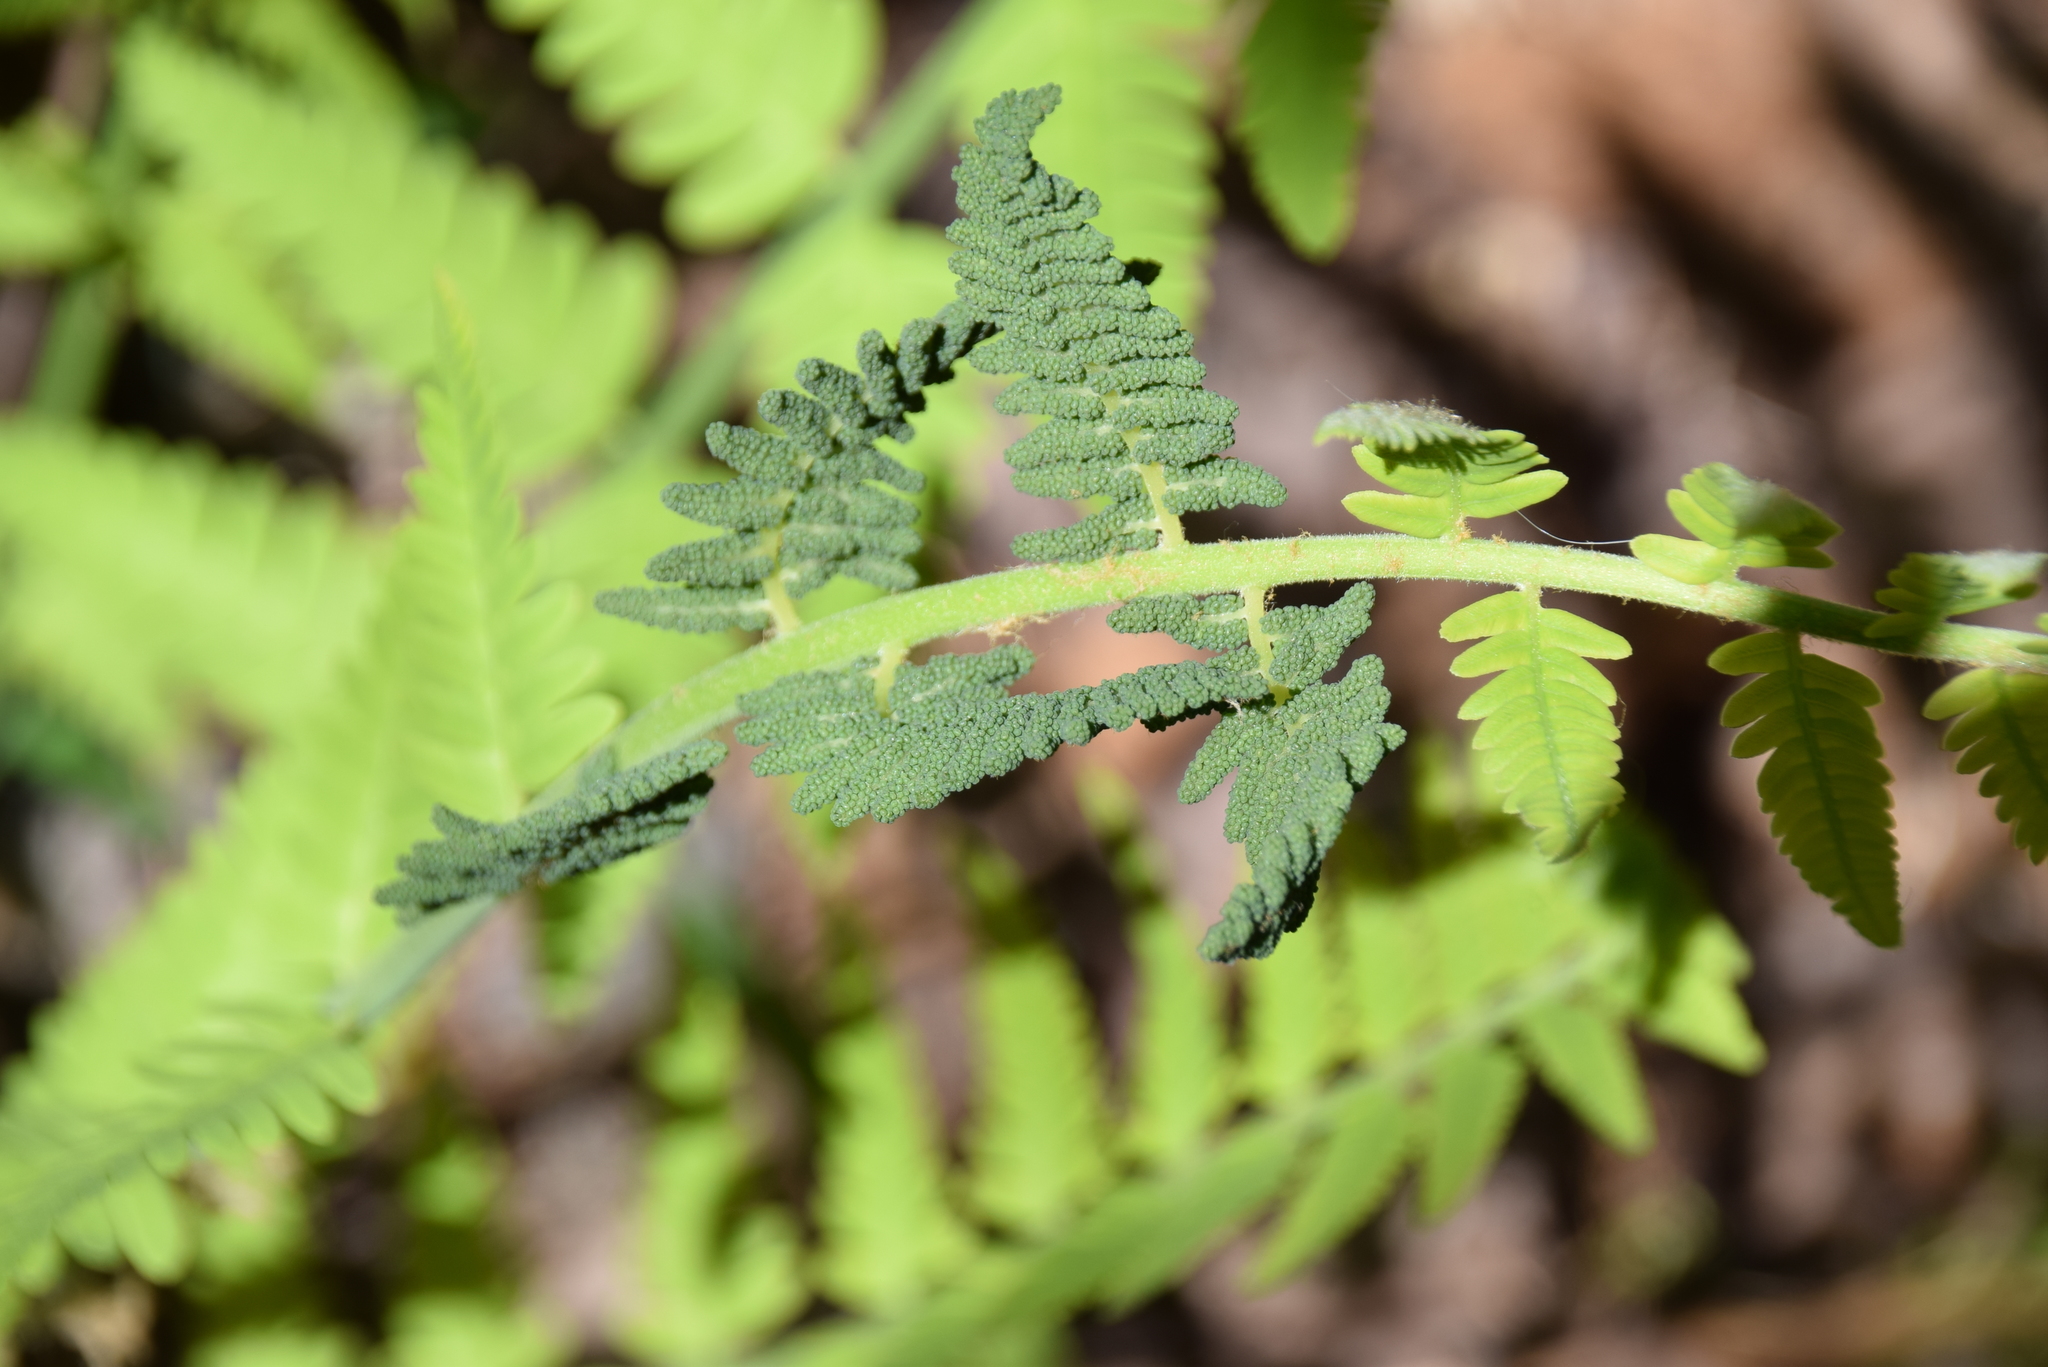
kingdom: Plantae
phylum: Tracheophyta
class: Polypodiopsida
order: Osmundales
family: Osmundaceae
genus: Claytosmunda
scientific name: Claytosmunda claytoniana
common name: Clayton's fern
